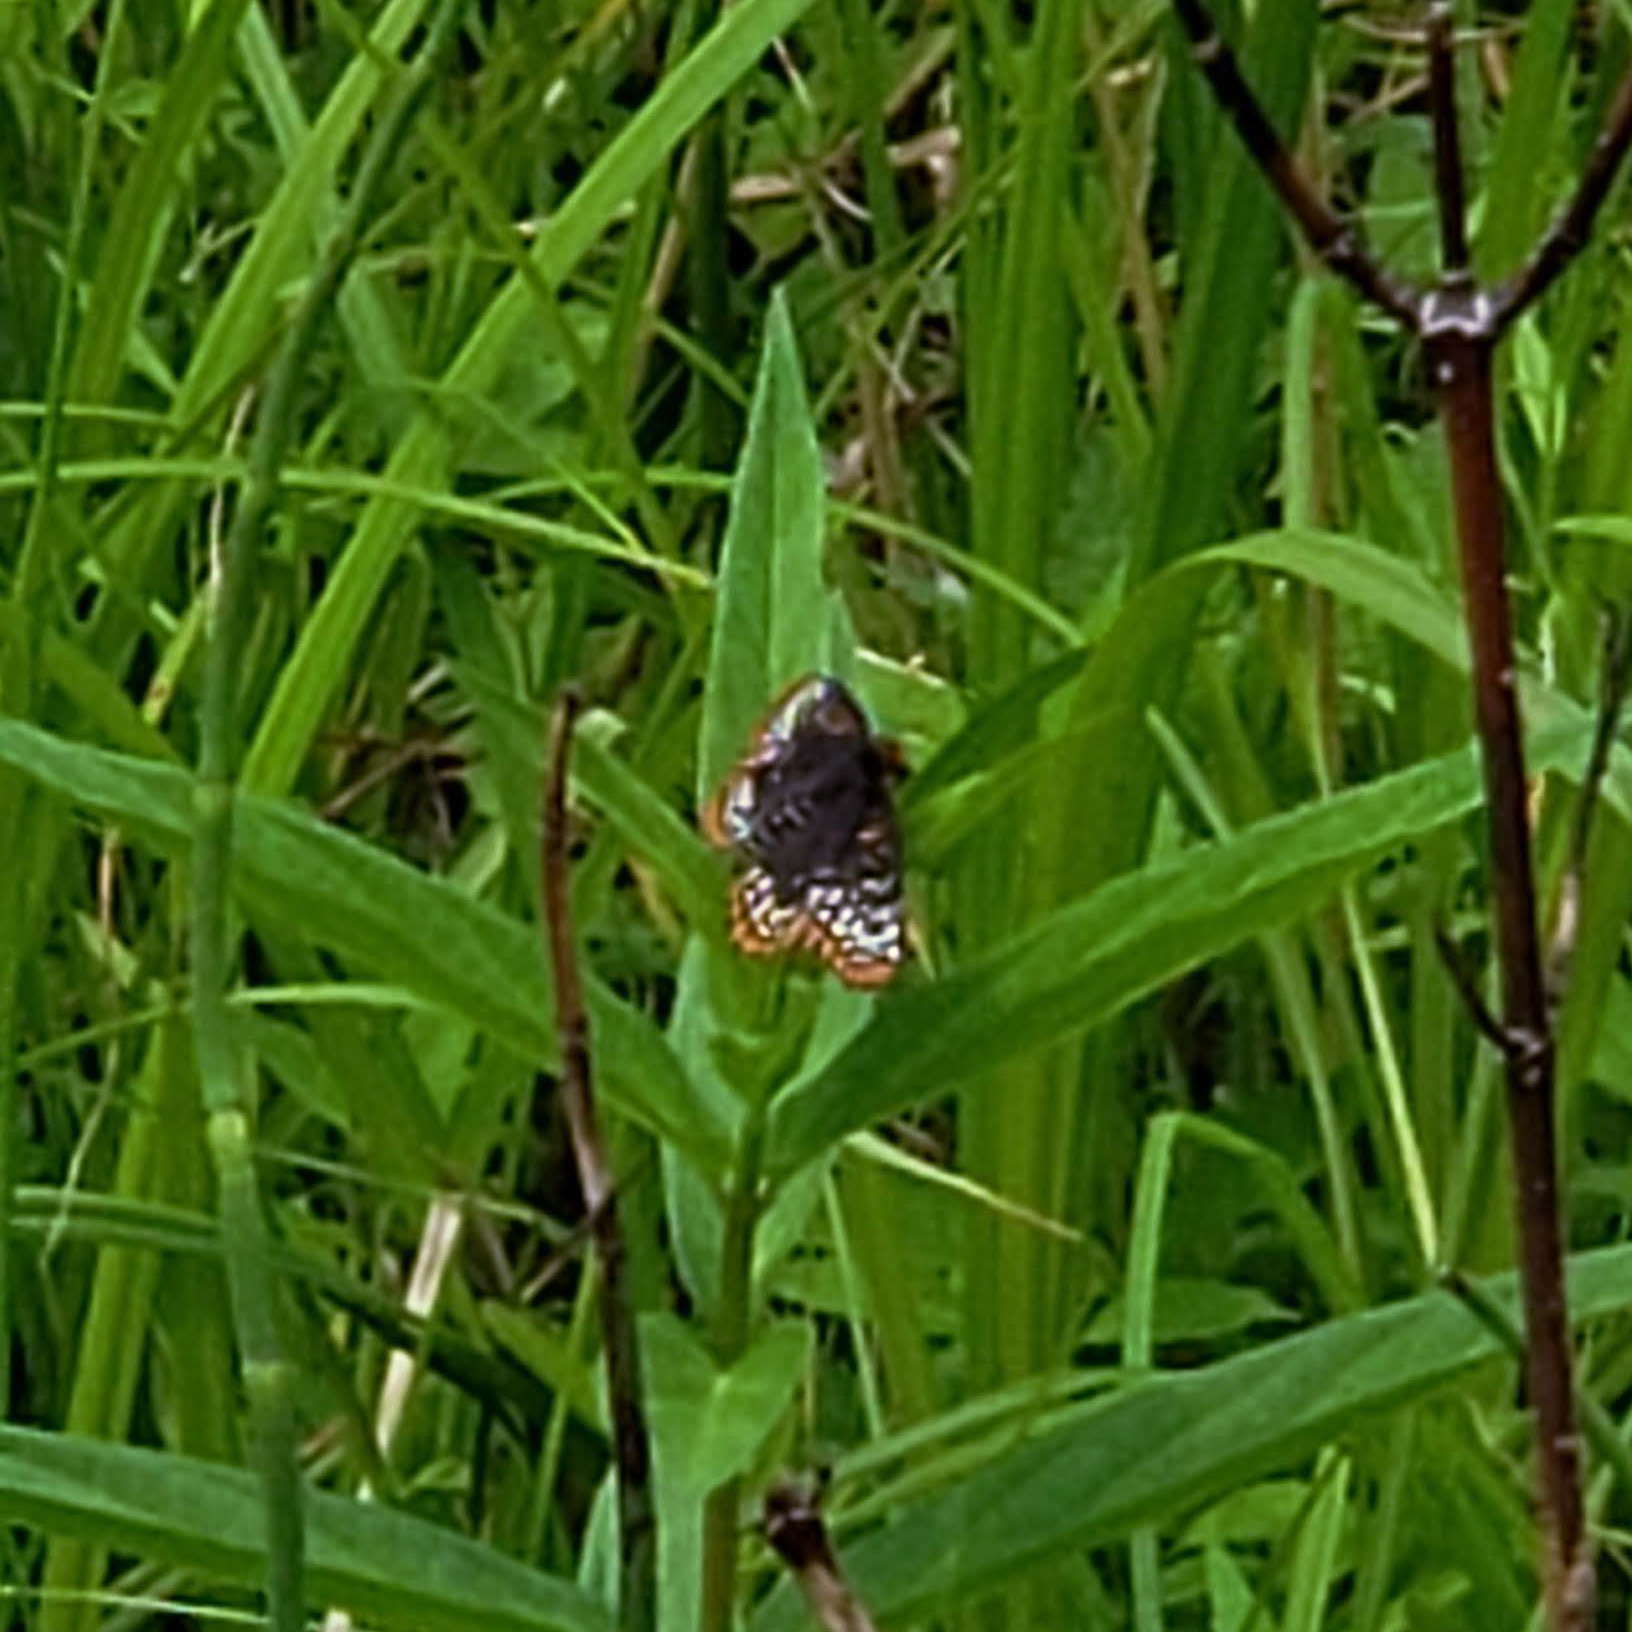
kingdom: Animalia
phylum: Arthropoda
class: Insecta
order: Lepidoptera
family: Nymphalidae
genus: Euphydryas
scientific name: Euphydryas phaeton
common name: Baltimore checkerspot
